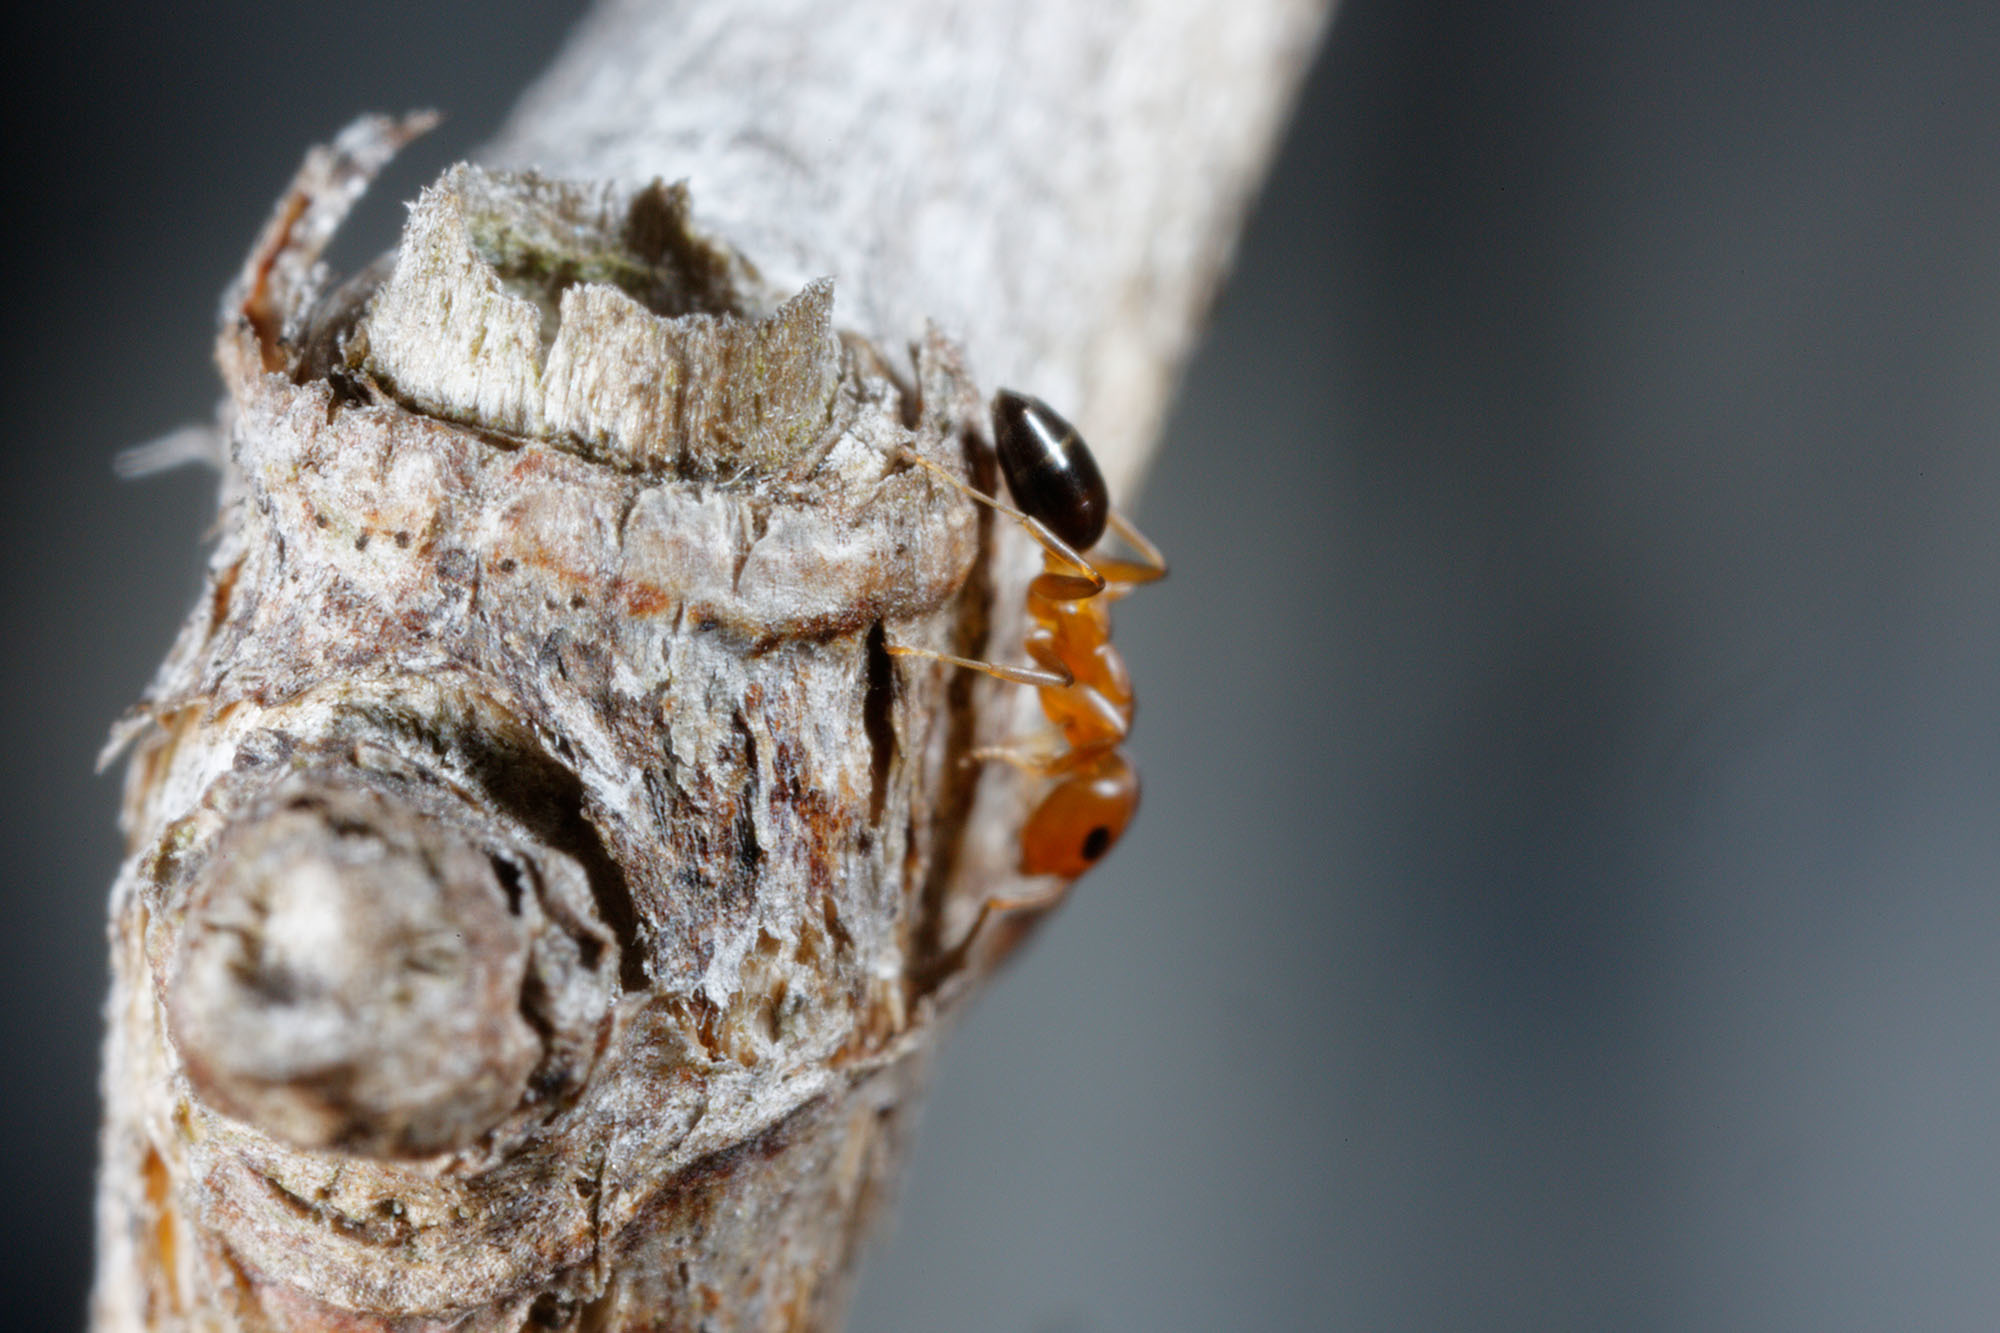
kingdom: Animalia
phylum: Arthropoda
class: Insecta
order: Hymenoptera
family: Formicidae
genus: Turneria
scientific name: Turneria bidentata
